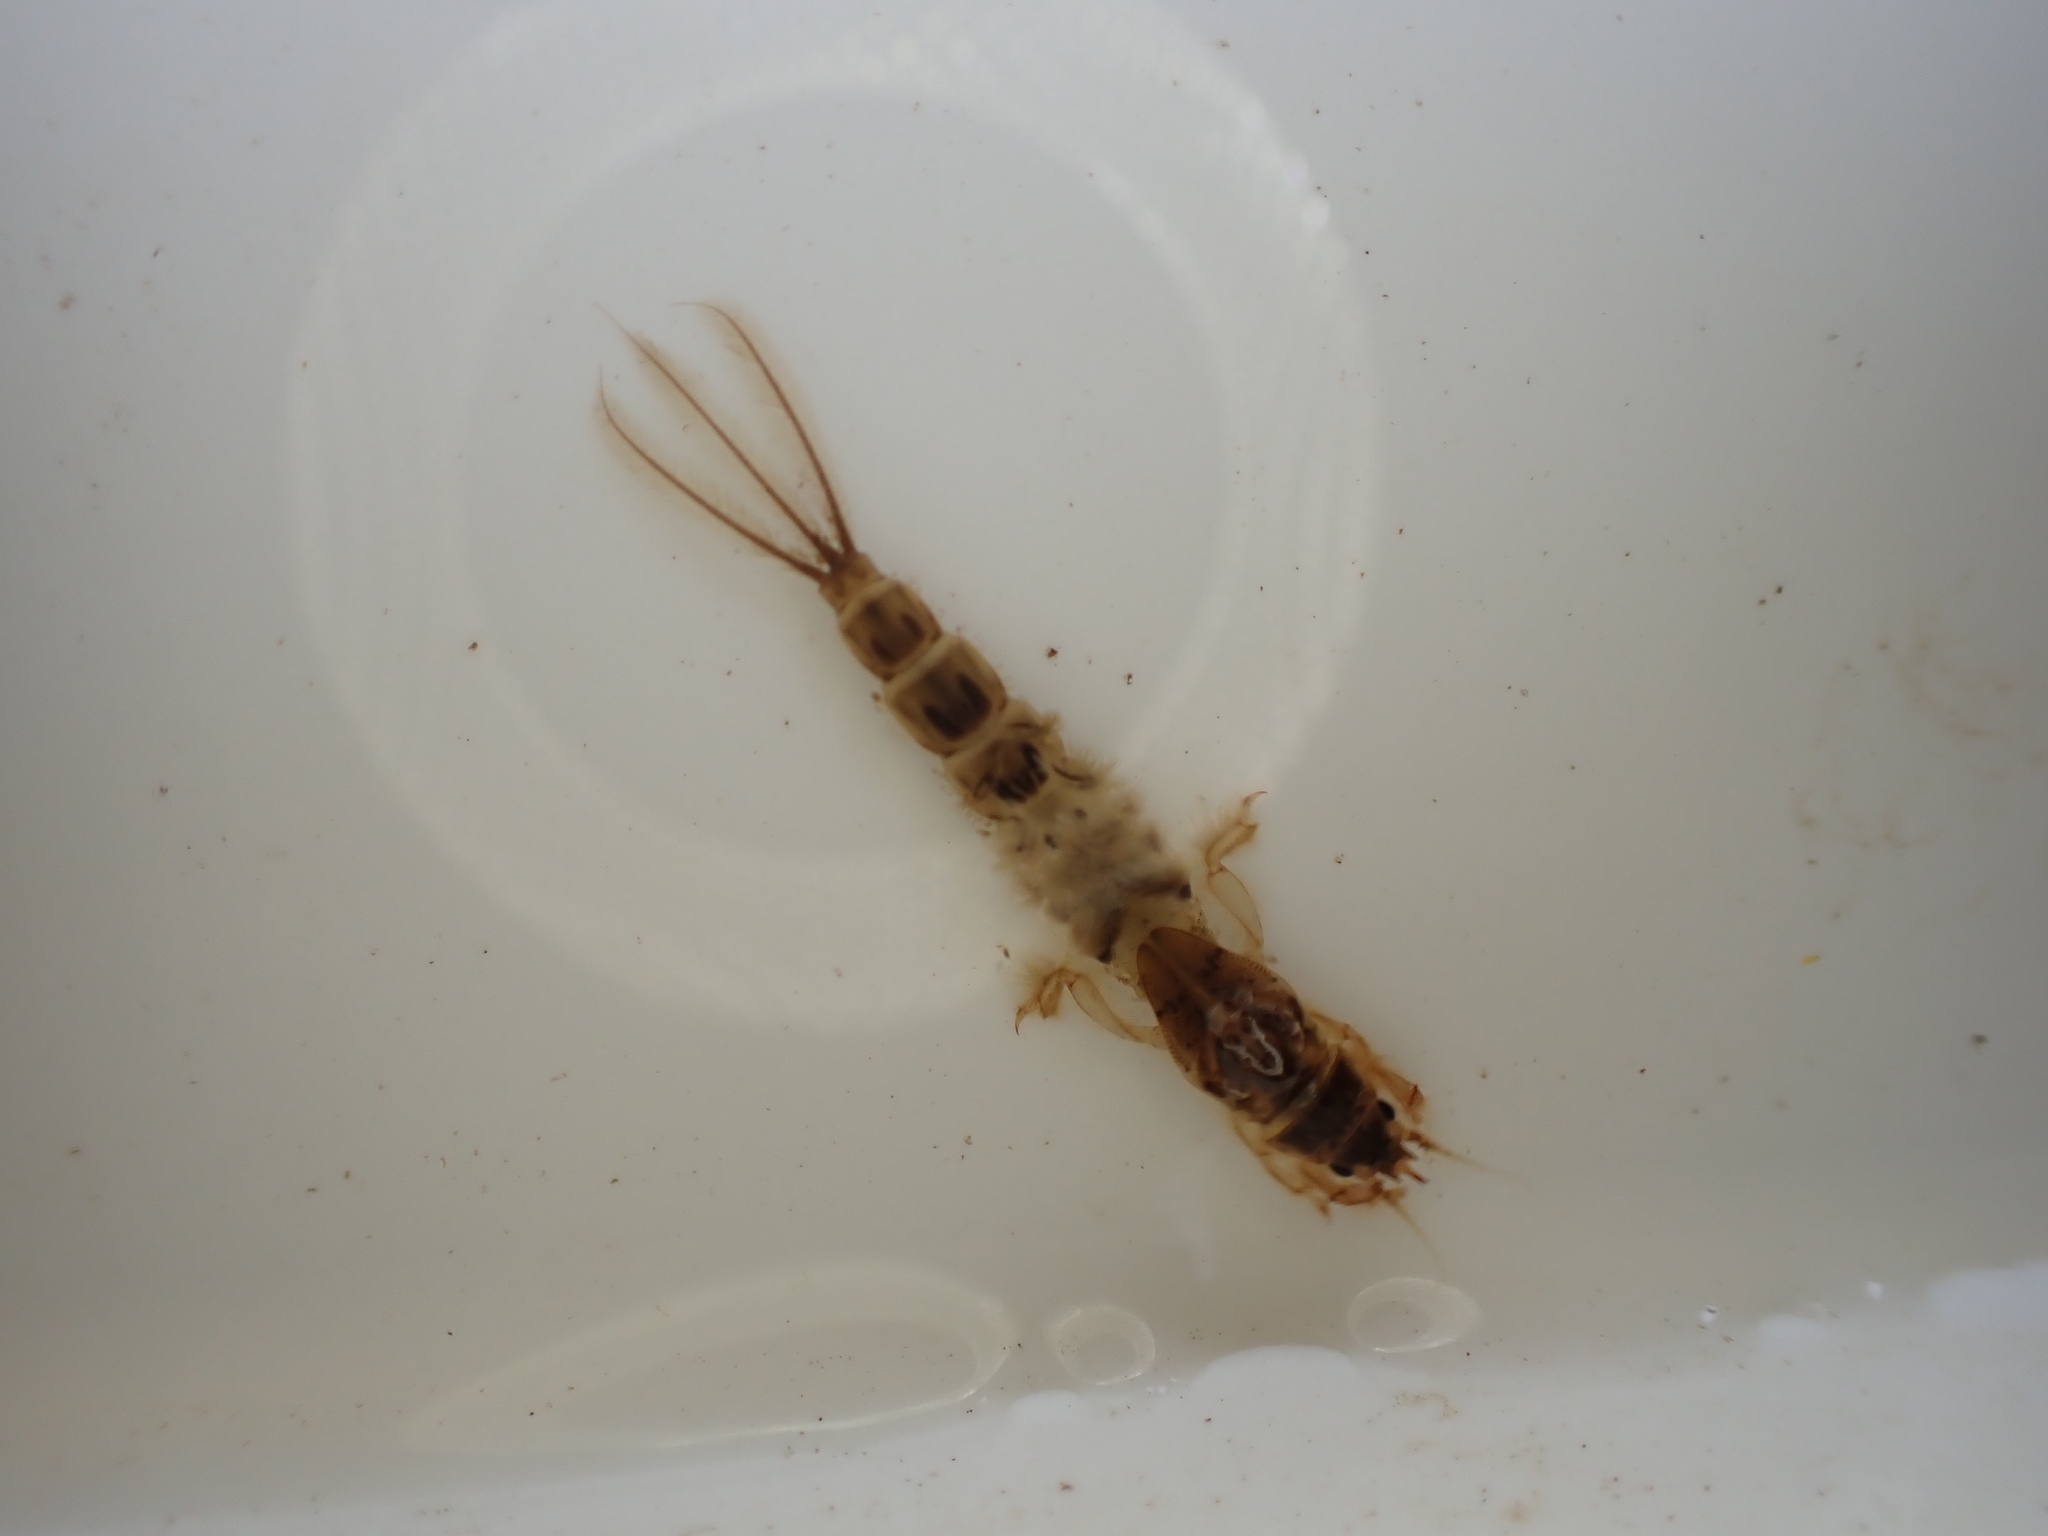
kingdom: Animalia
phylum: Arthropoda
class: Insecta
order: Ephemeroptera
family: Ephemeridae
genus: Ephemera
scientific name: Ephemera danica
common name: Green dun
